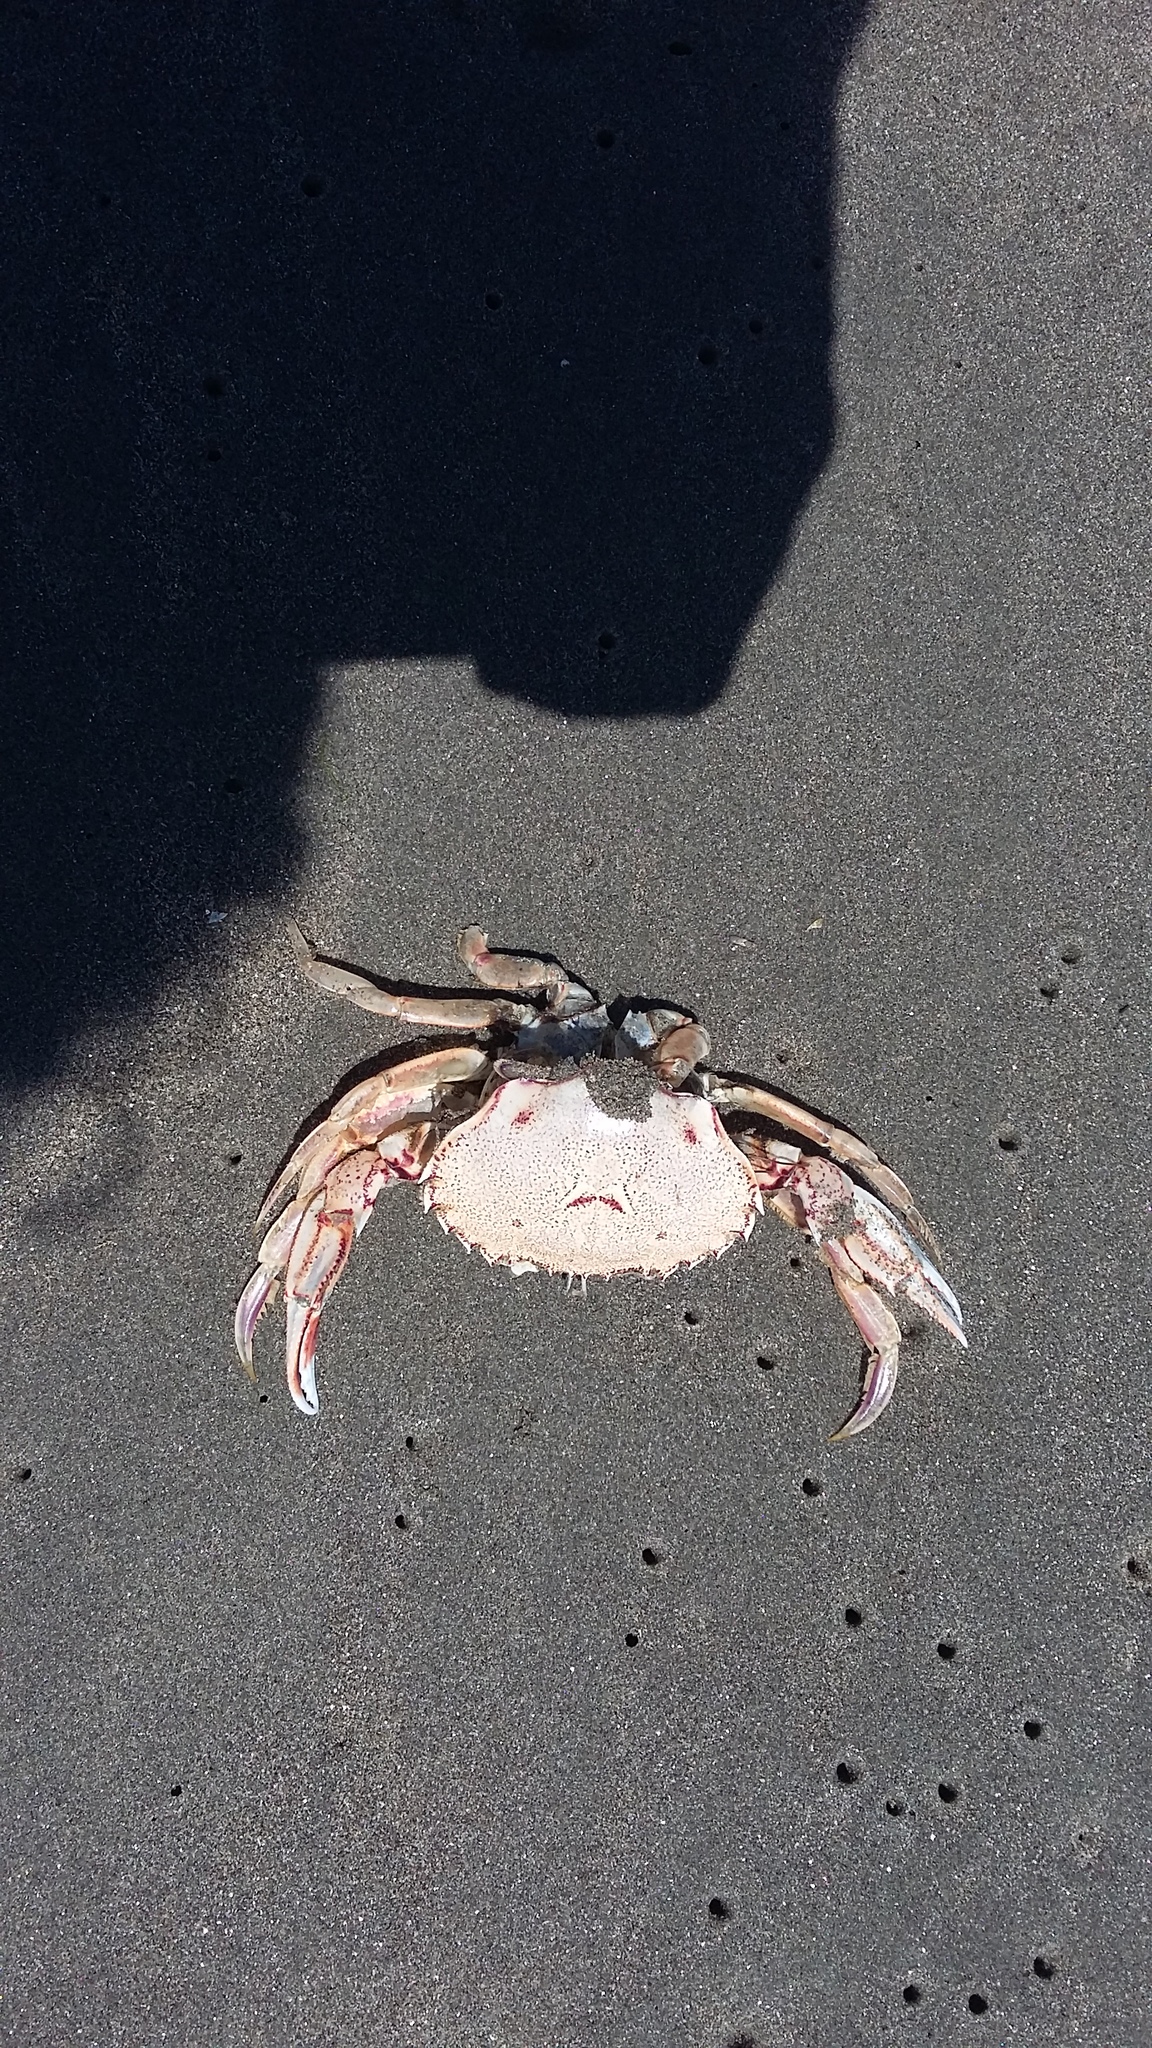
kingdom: Animalia
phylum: Arthropoda
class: Malacostraca
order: Decapoda
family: Ovalipidae
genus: Ovalipes
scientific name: Ovalipes catharus
